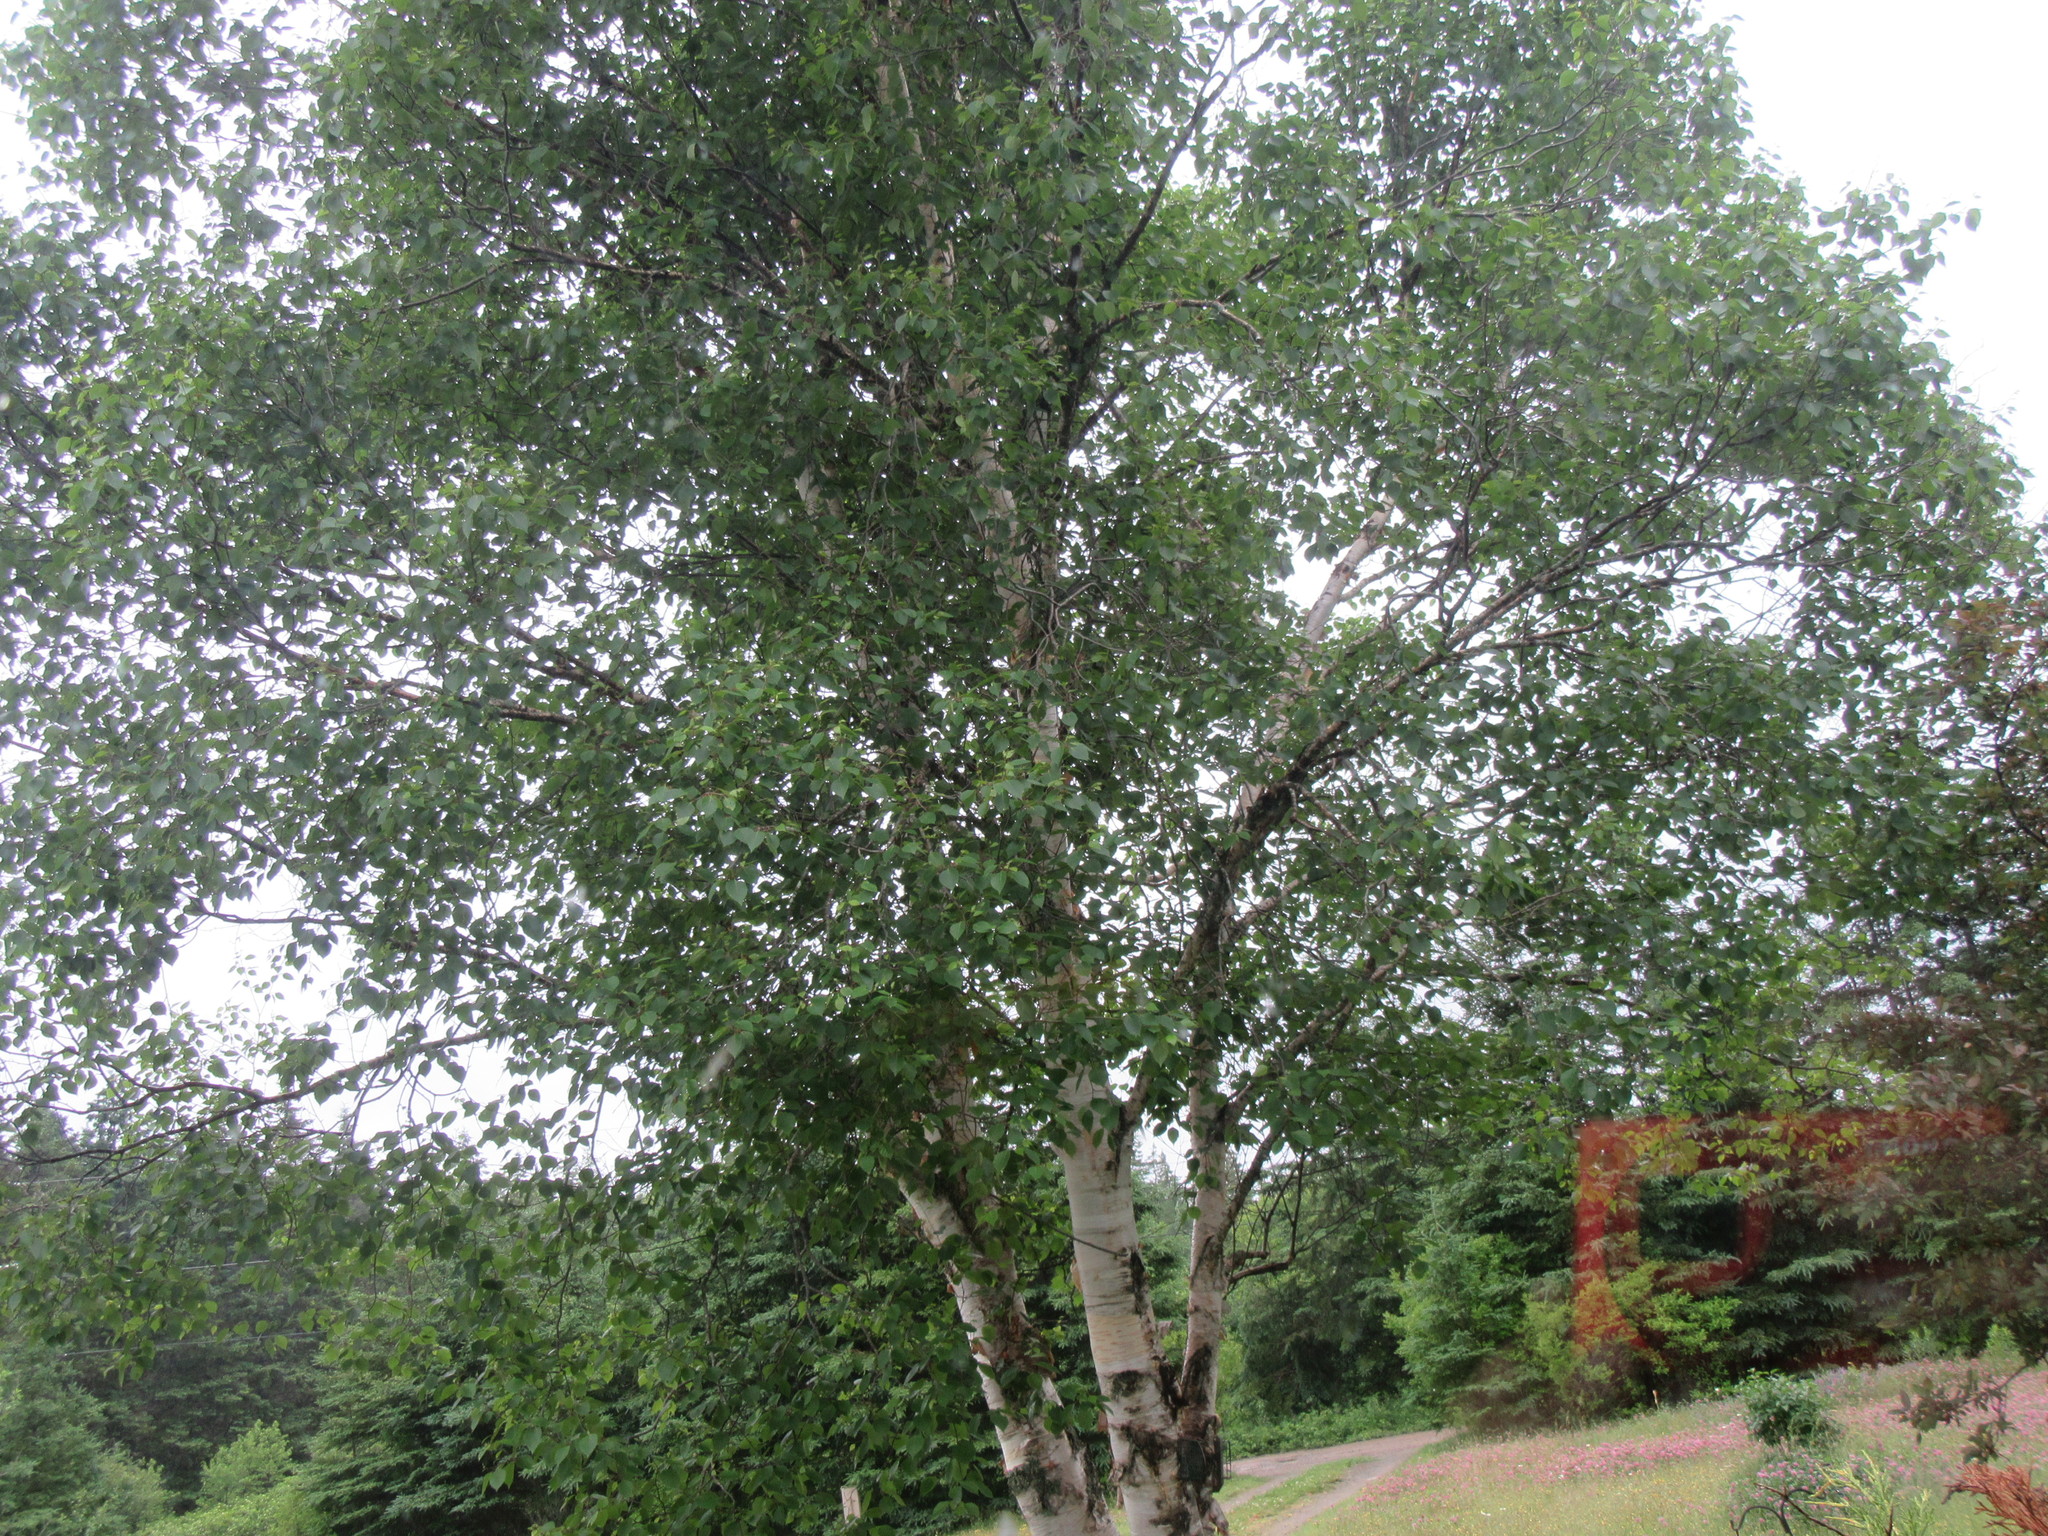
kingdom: Plantae
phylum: Tracheophyta
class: Magnoliopsida
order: Fagales
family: Betulaceae
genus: Betula
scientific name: Betula papyrifera
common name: Paper birch
